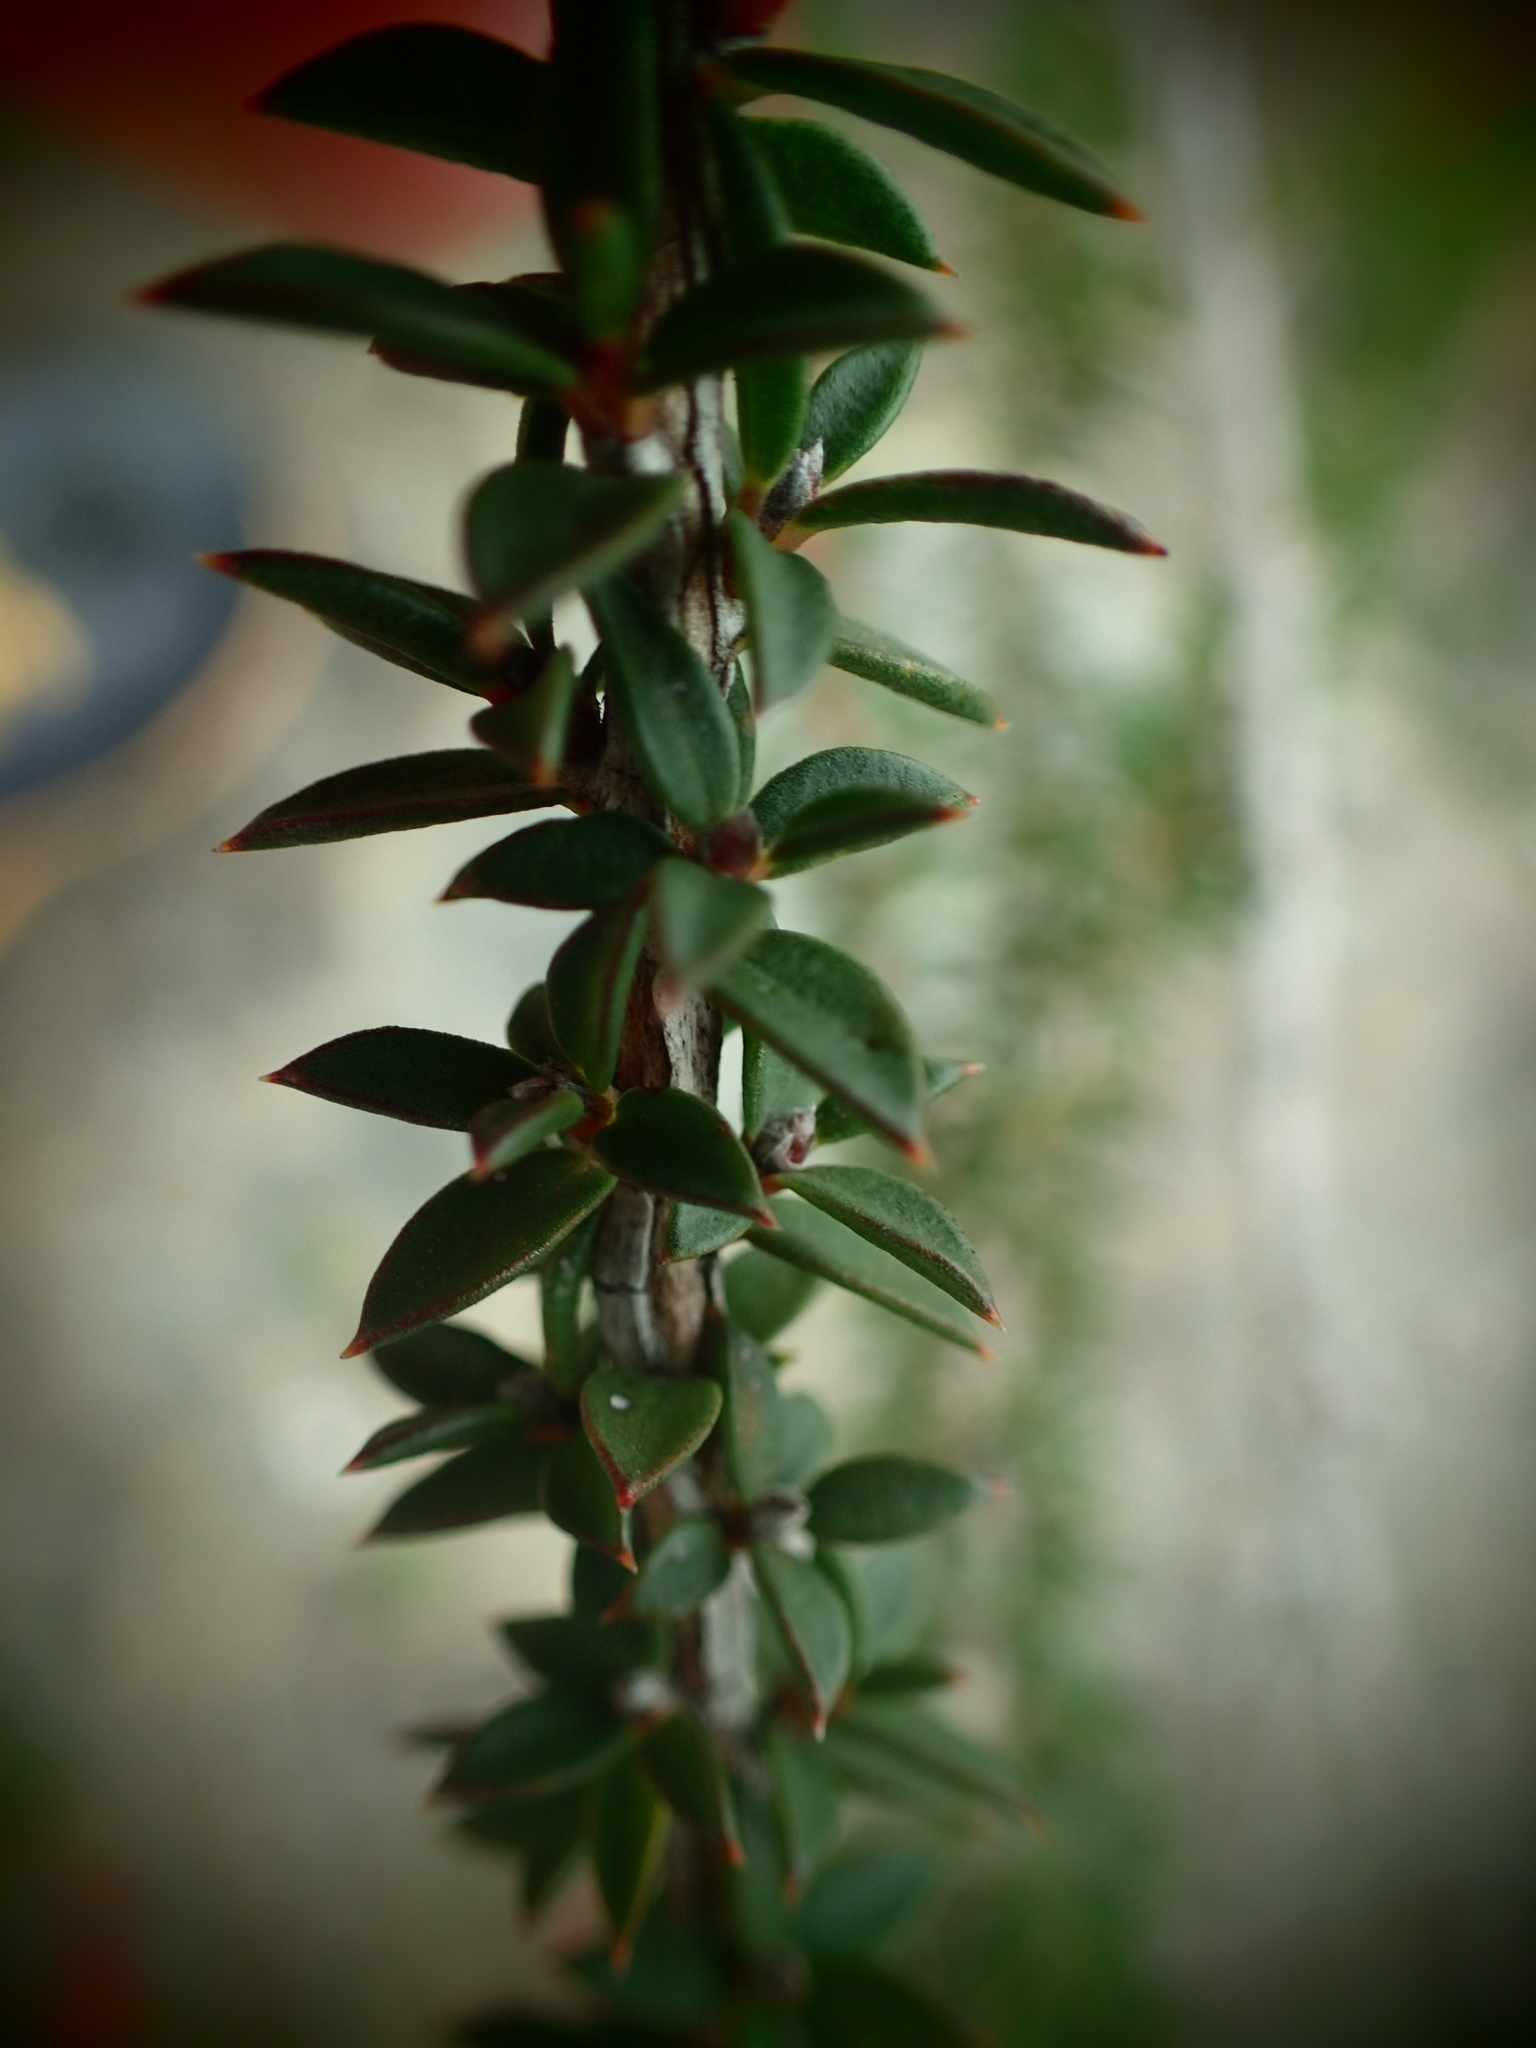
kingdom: Plantae
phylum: Tracheophyta
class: Magnoliopsida
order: Myrtales
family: Myrtaceae
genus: Leptospermum
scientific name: Leptospermum squarrosum
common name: Peach-blossom teatree
